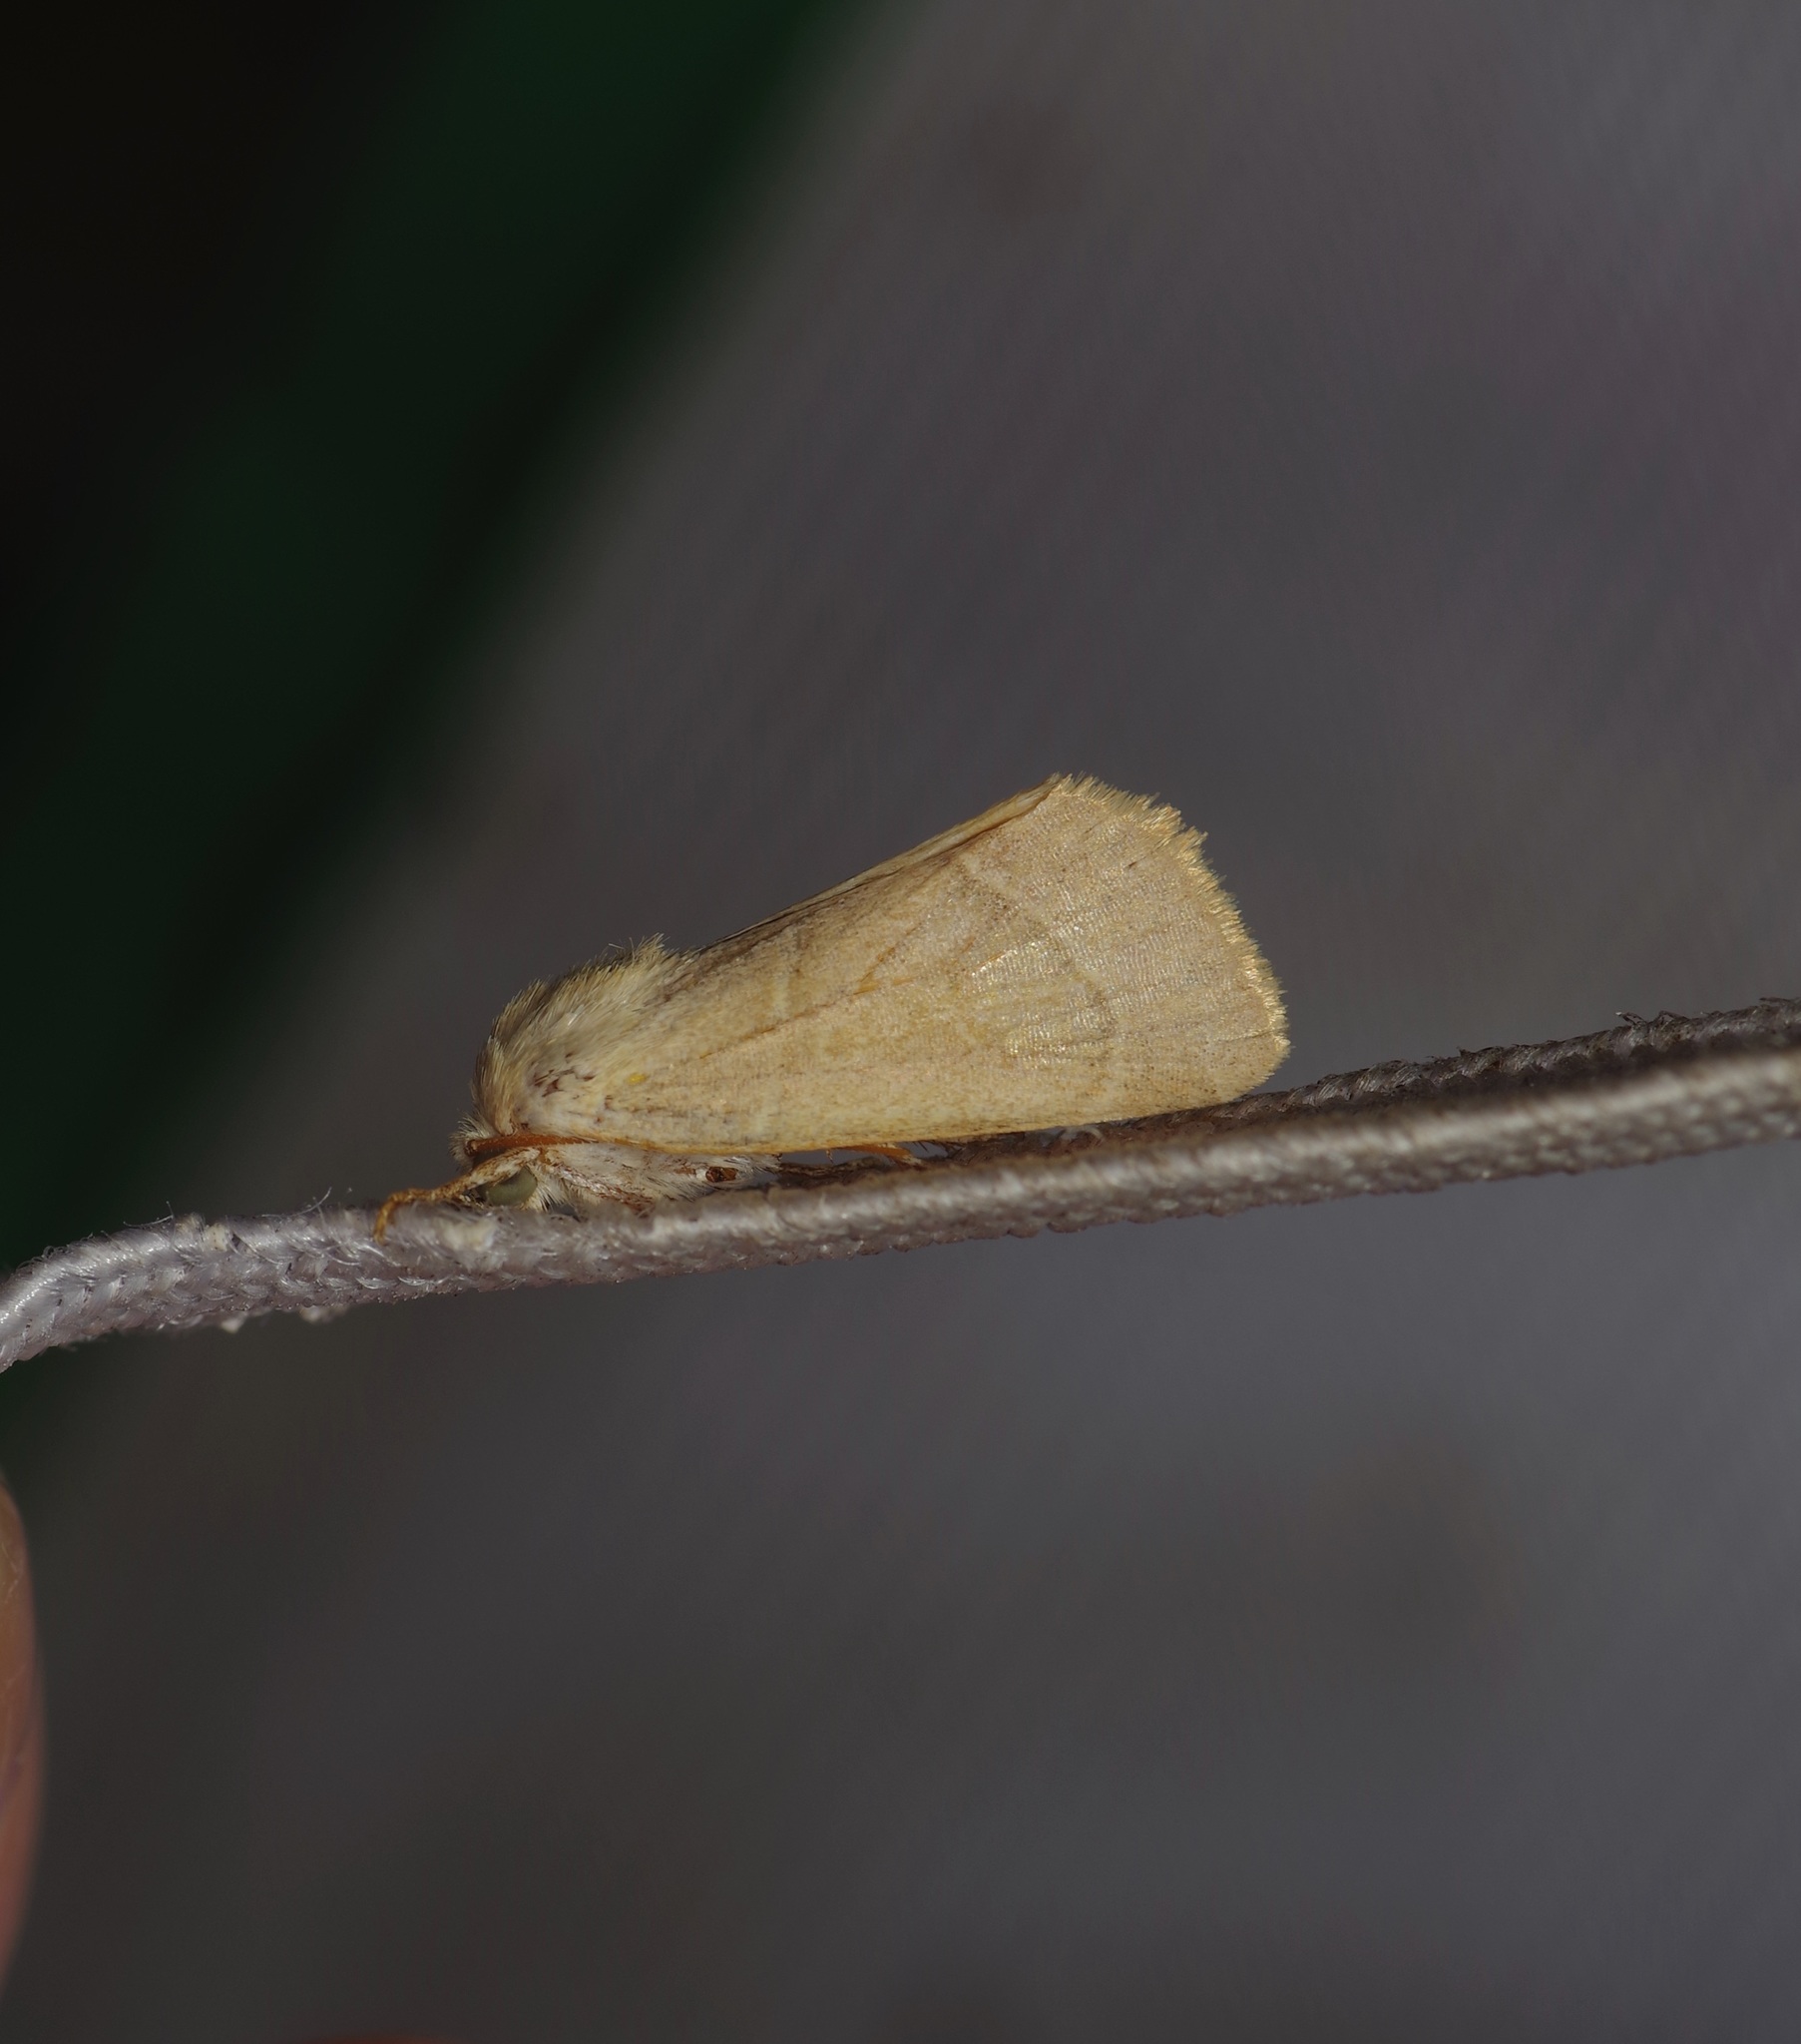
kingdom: Animalia
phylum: Arthropoda
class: Insecta
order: Lepidoptera
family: Noctuidae
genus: Cosmia
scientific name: Cosmia calami
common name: American dun-bar moth
